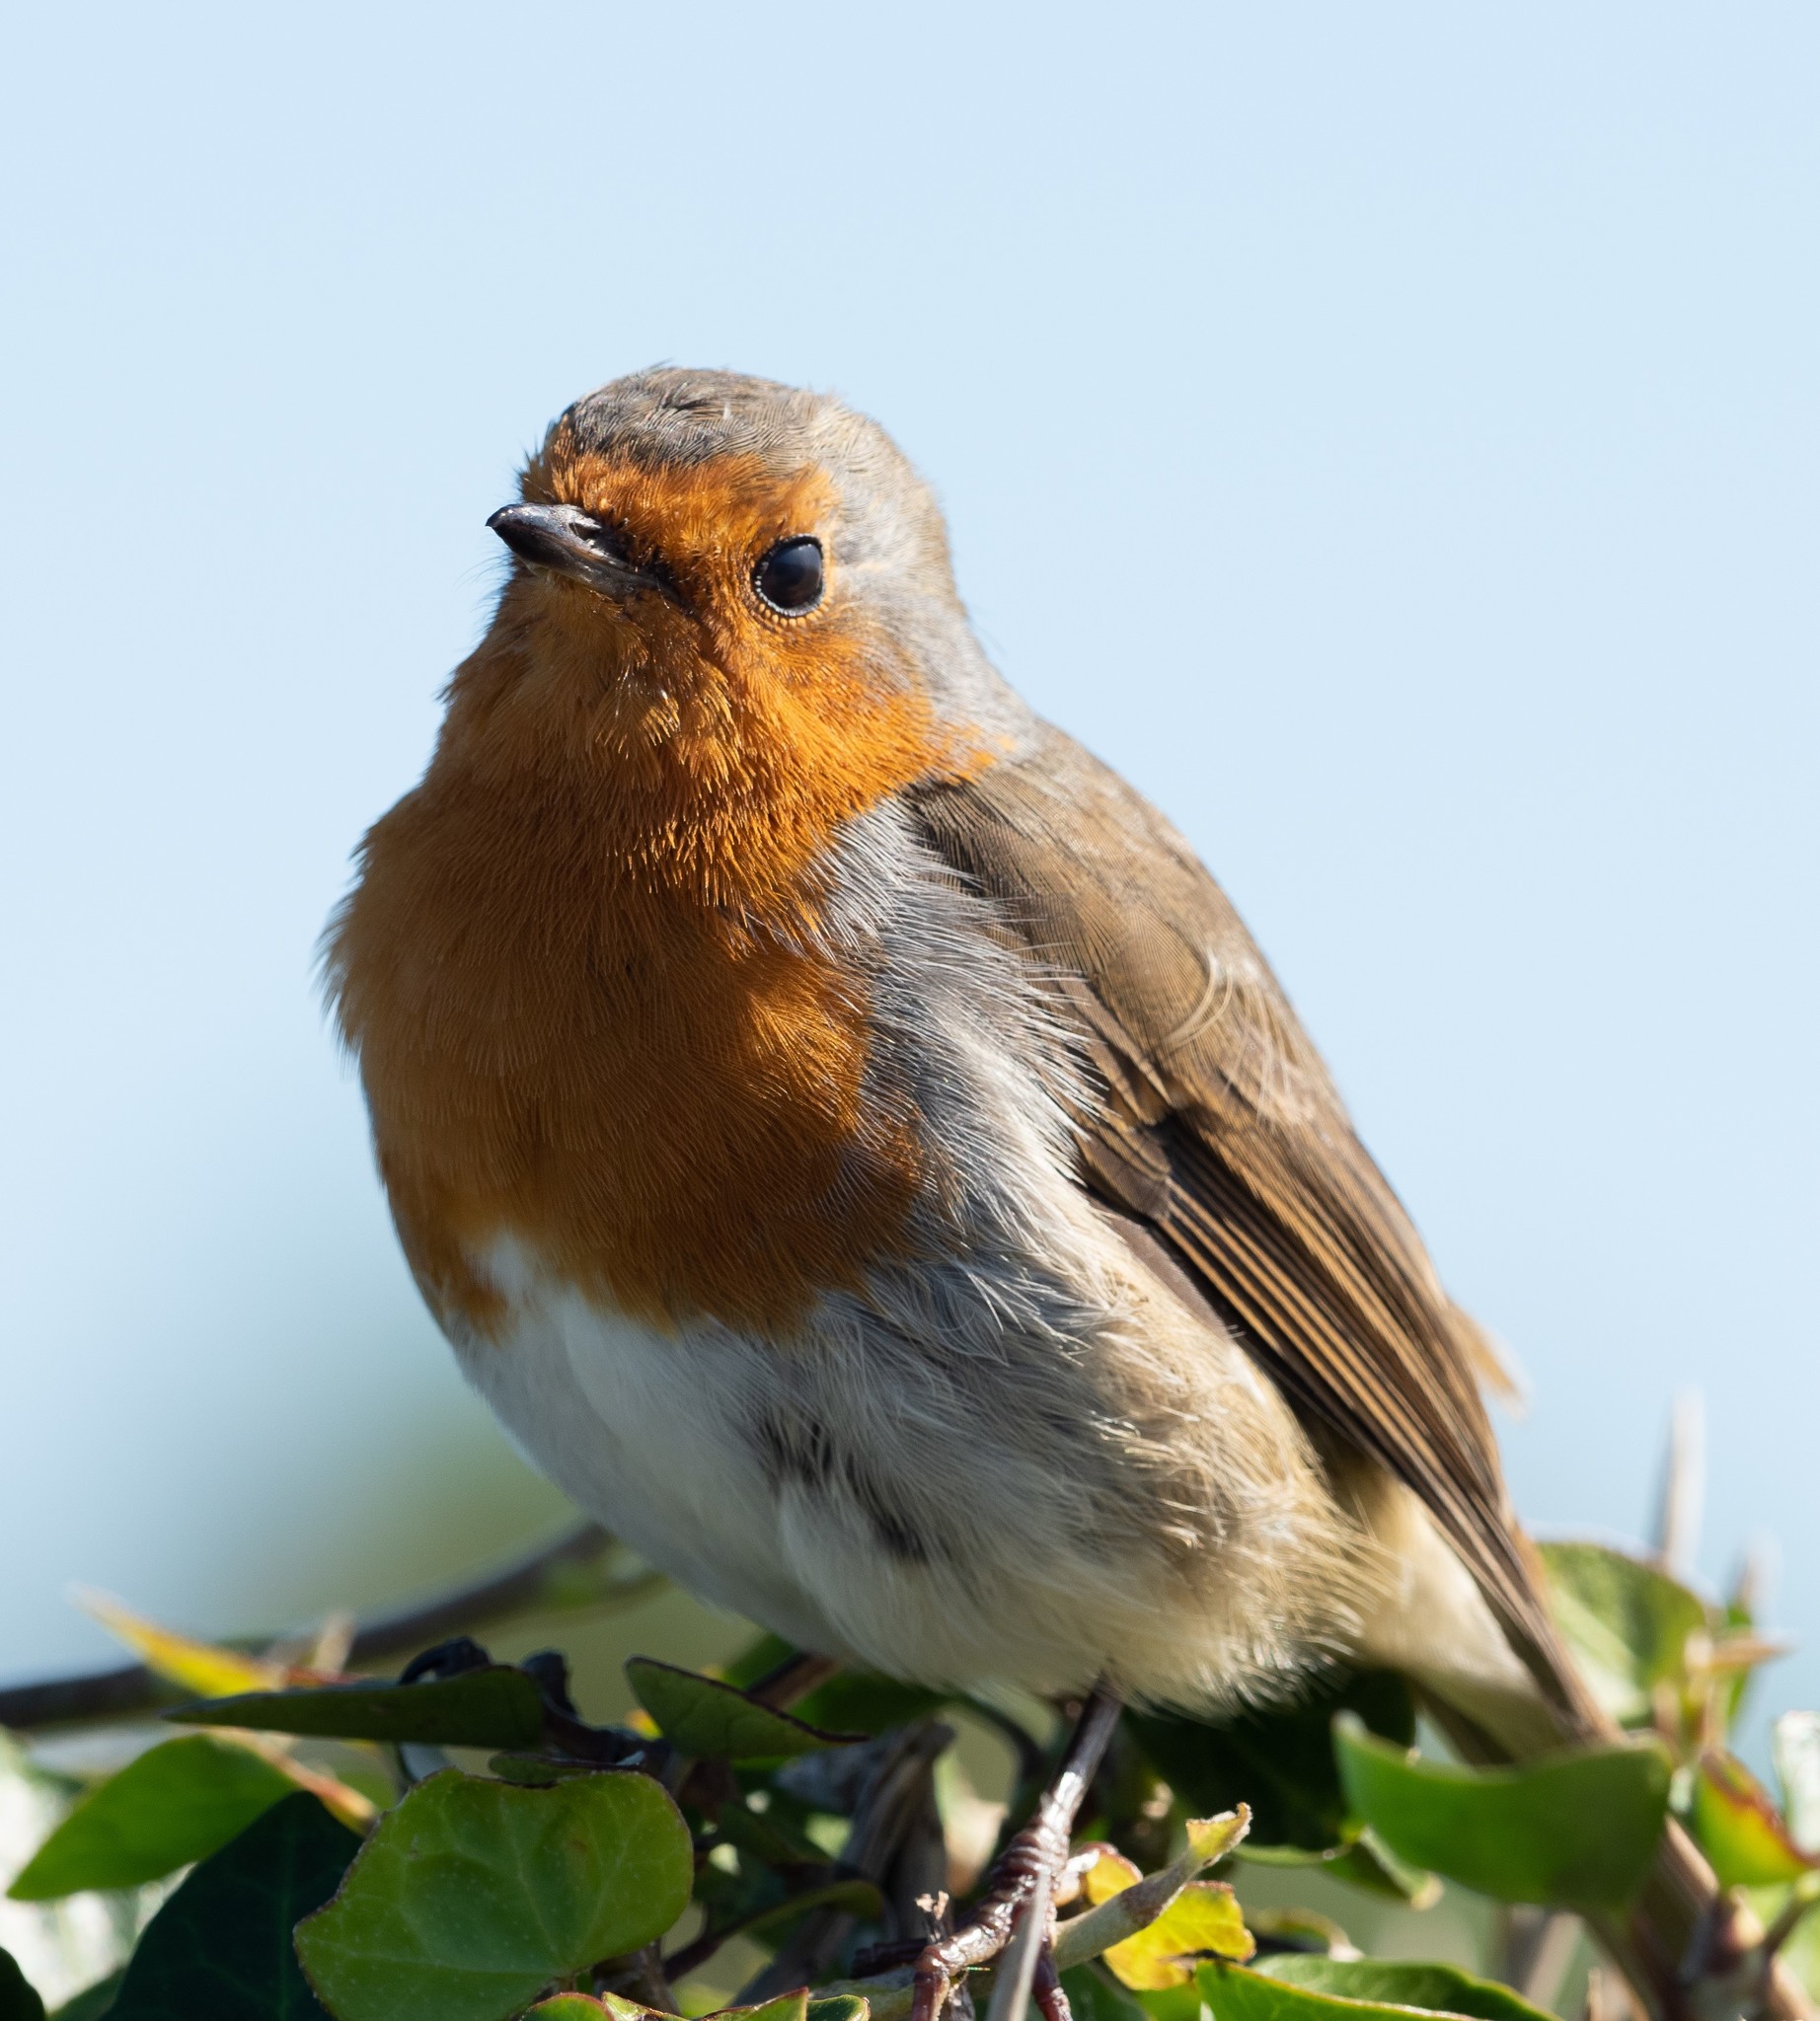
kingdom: Animalia
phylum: Chordata
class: Aves
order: Passeriformes
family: Muscicapidae
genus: Erithacus
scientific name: Erithacus rubecula
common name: European robin
